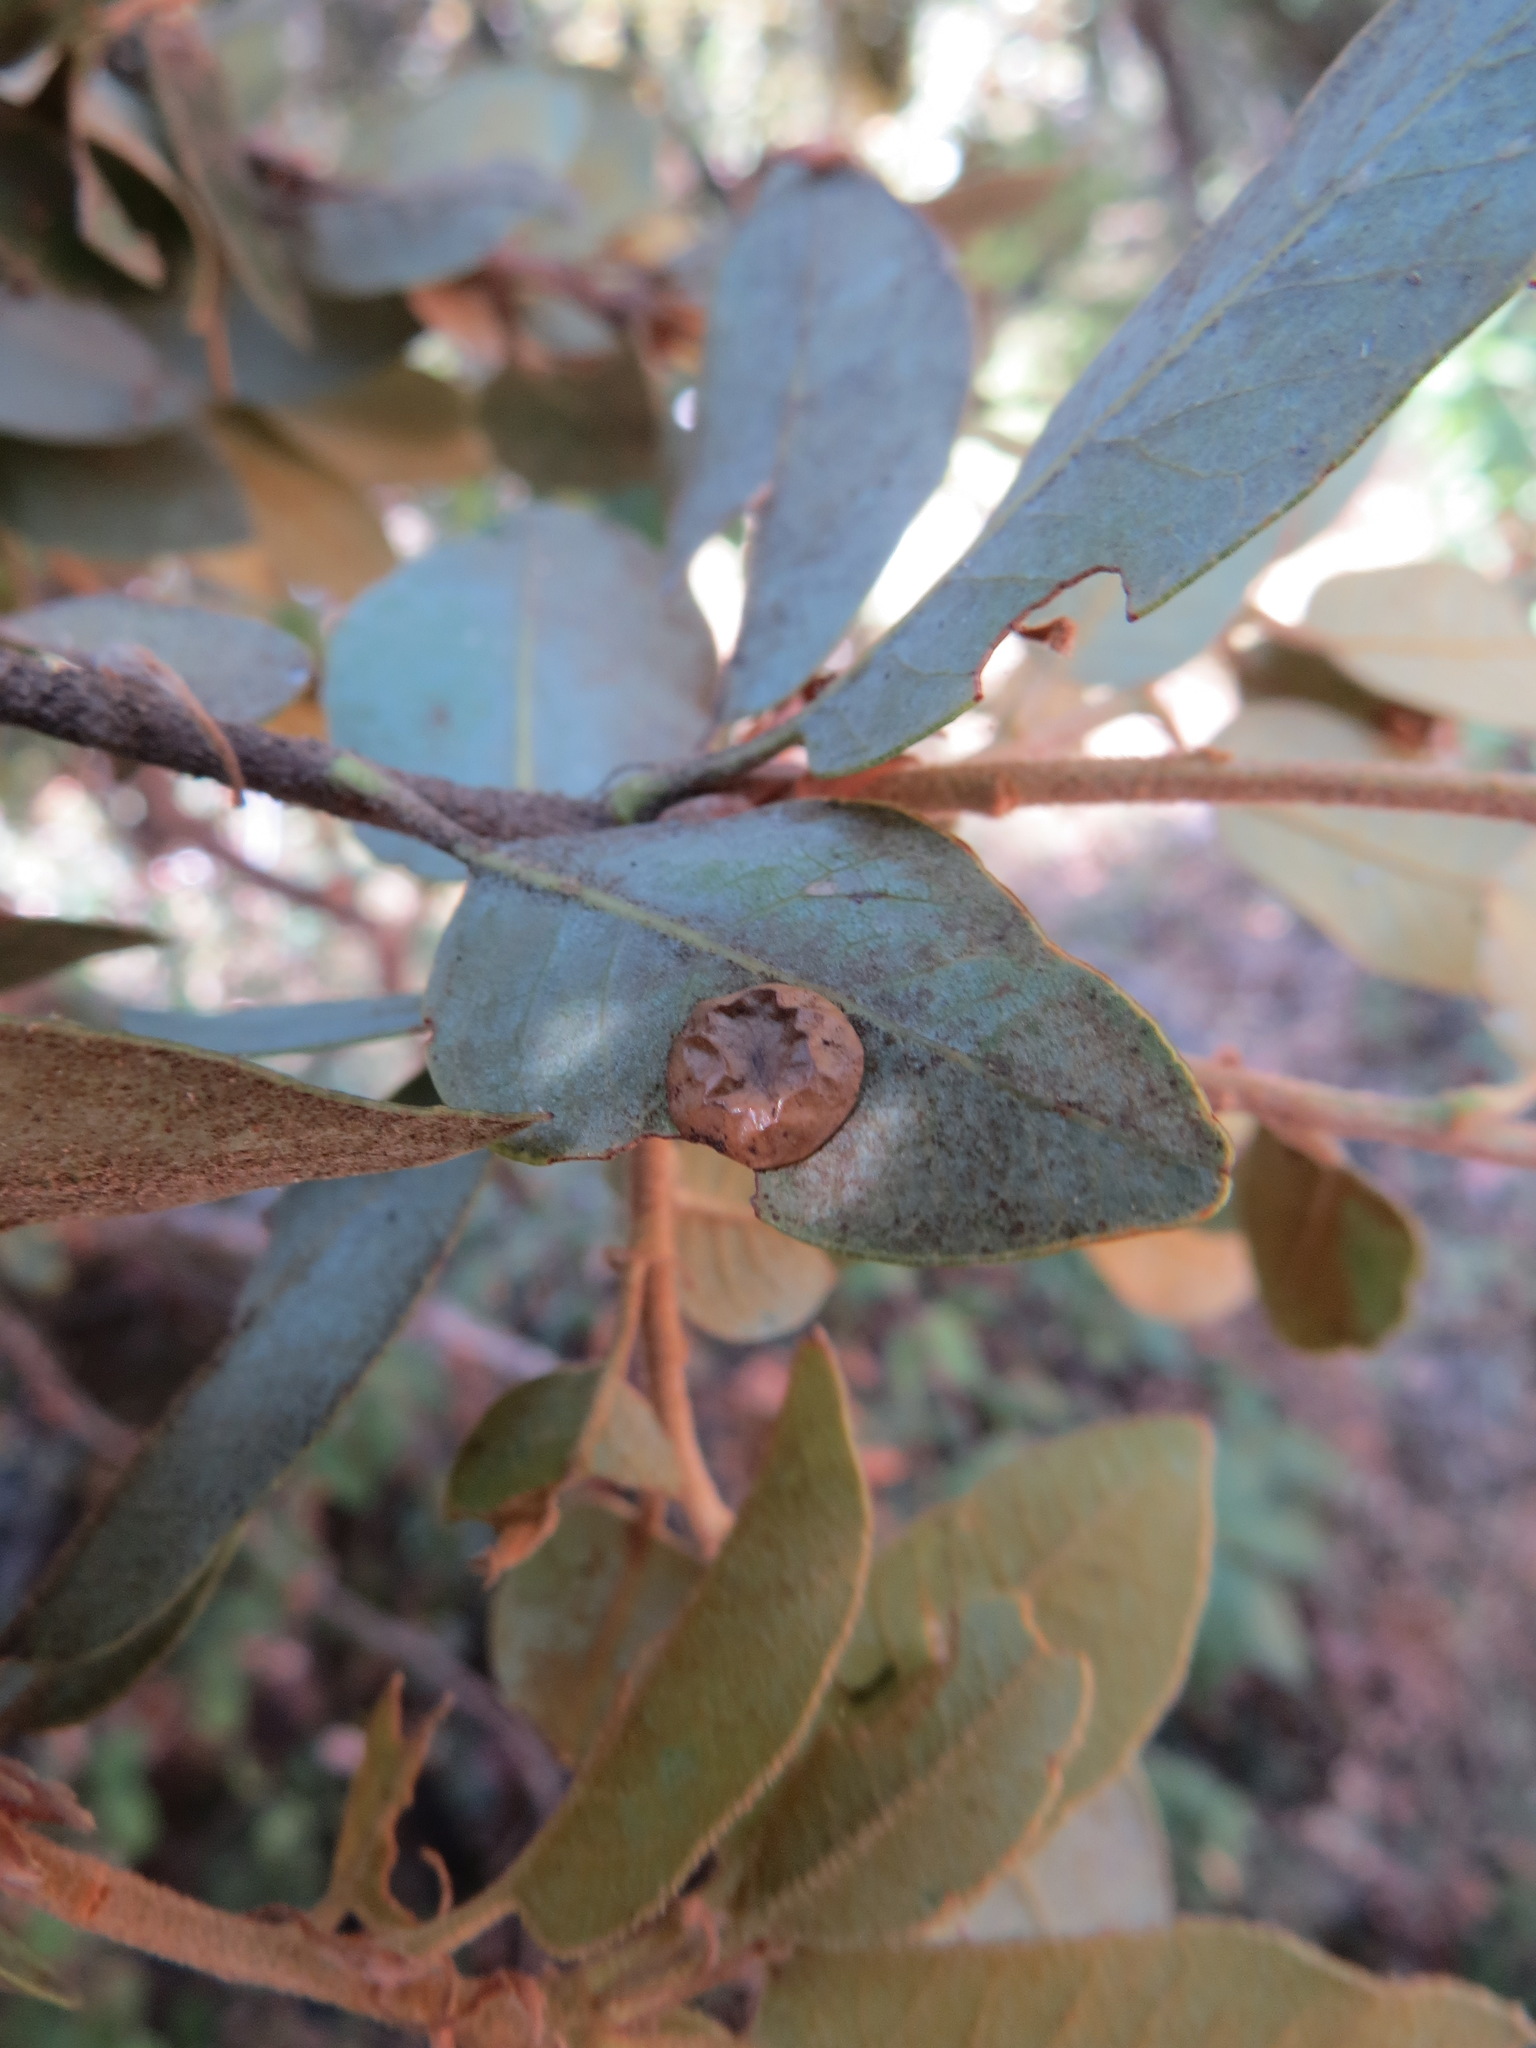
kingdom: Animalia
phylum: Arthropoda
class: Insecta
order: Hymenoptera
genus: Paracraspis
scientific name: Paracraspis
